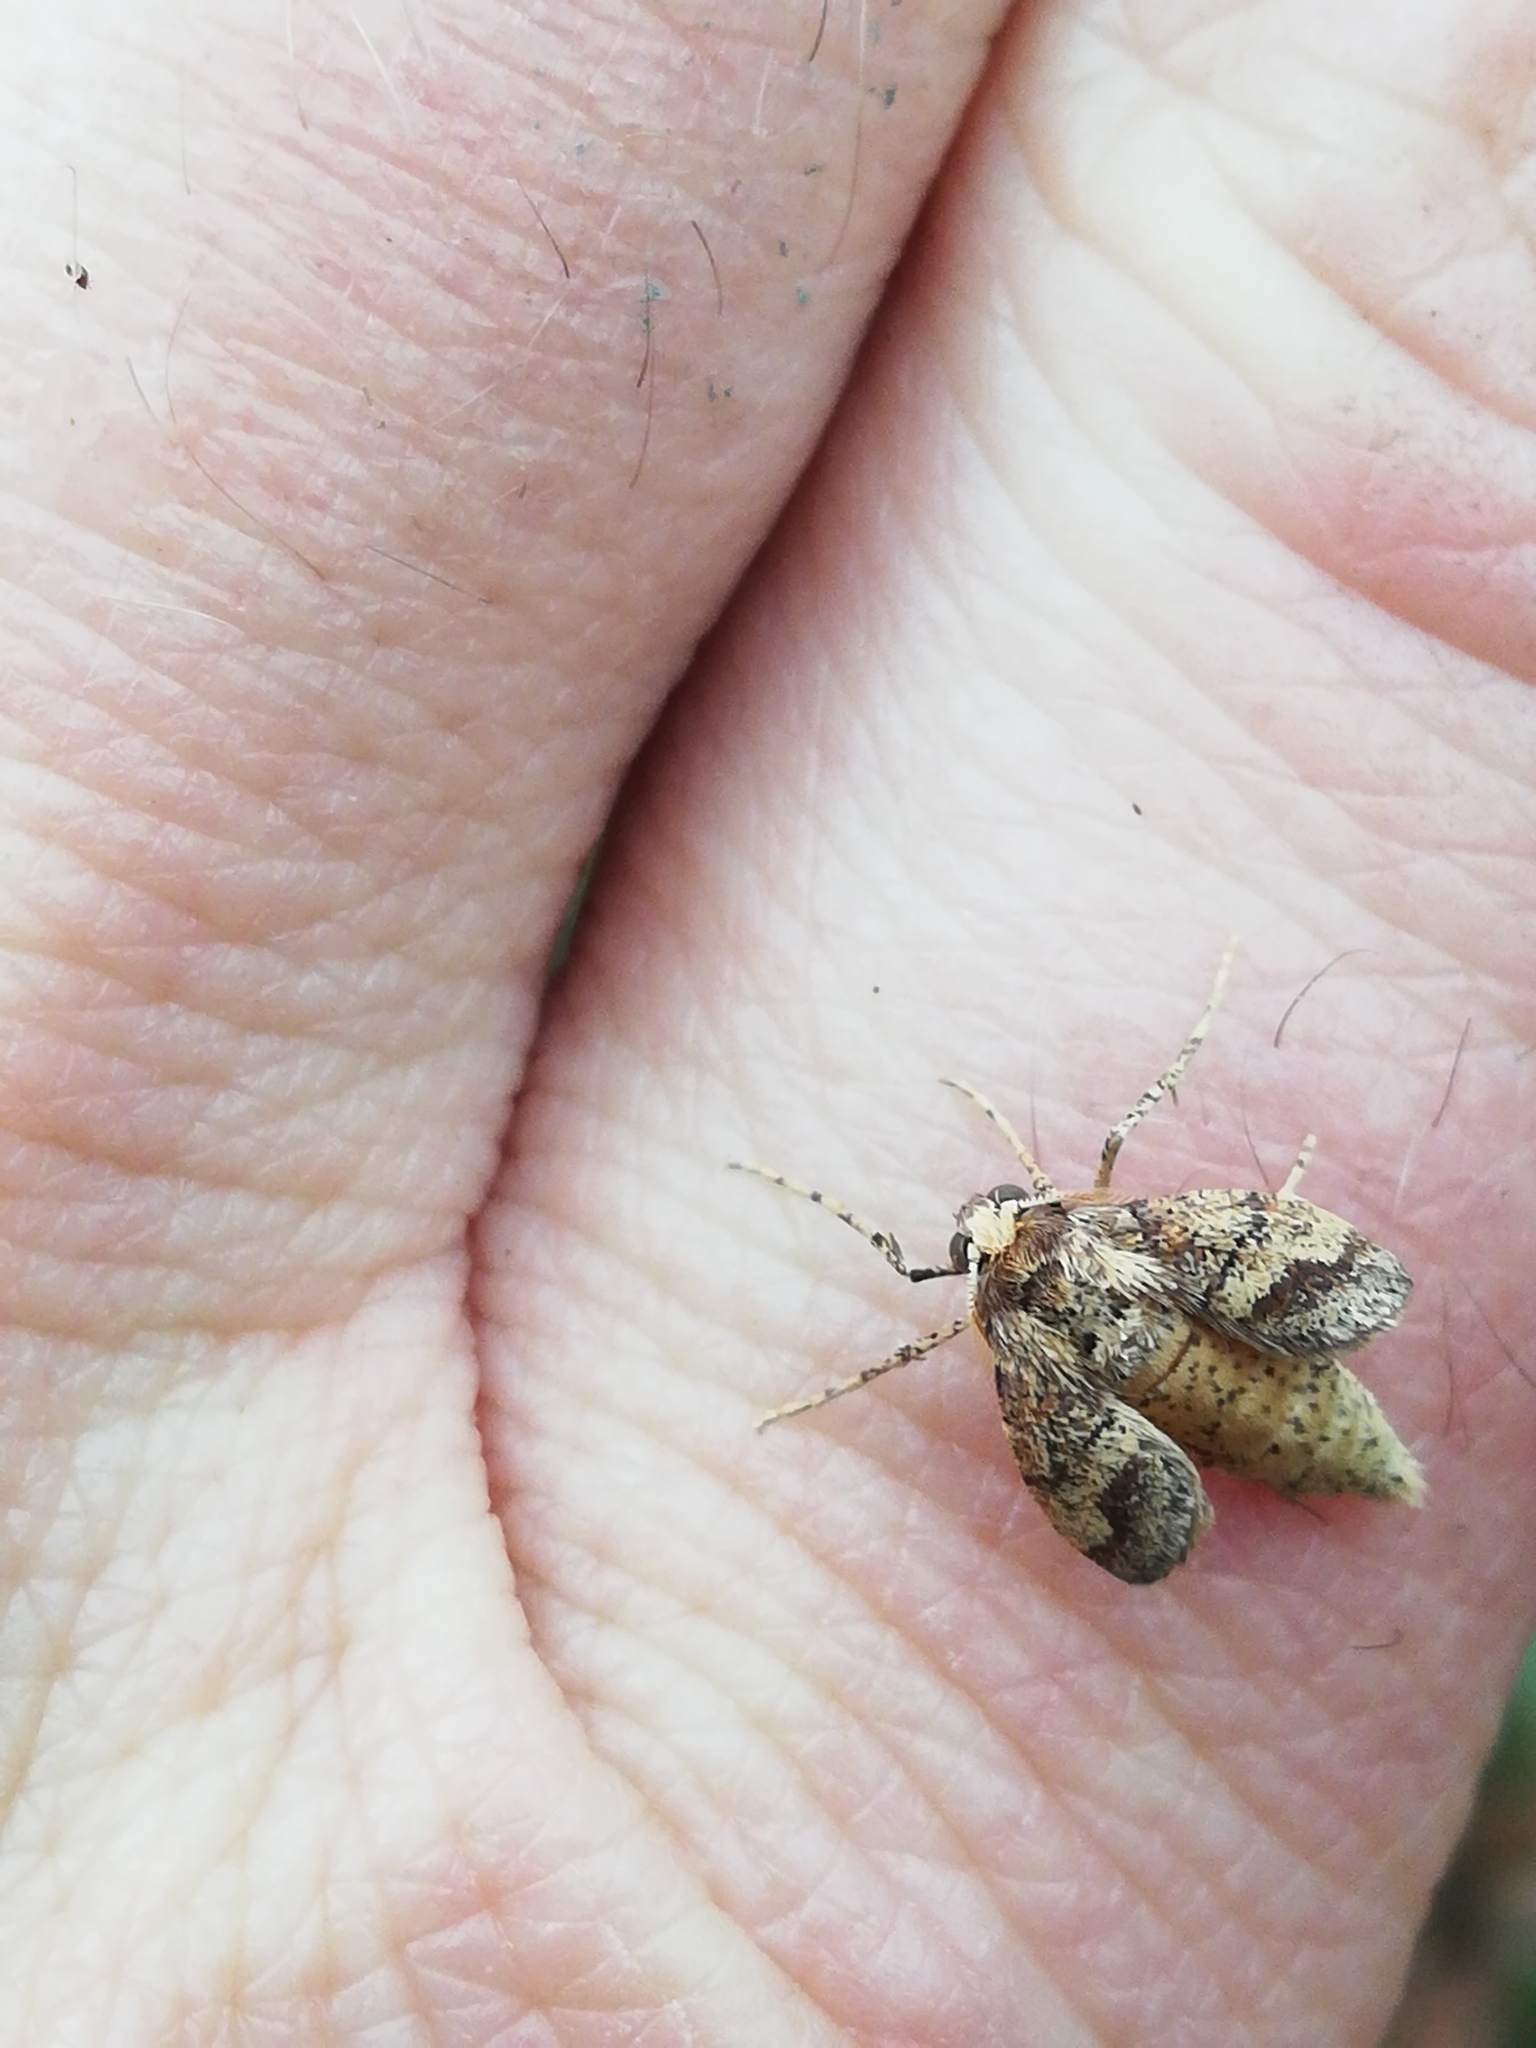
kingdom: Animalia
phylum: Arthropoda
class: Insecta
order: Lepidoptera
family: Geometridae
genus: Agriopis
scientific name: Agriopis marginaria
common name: Dotted border
